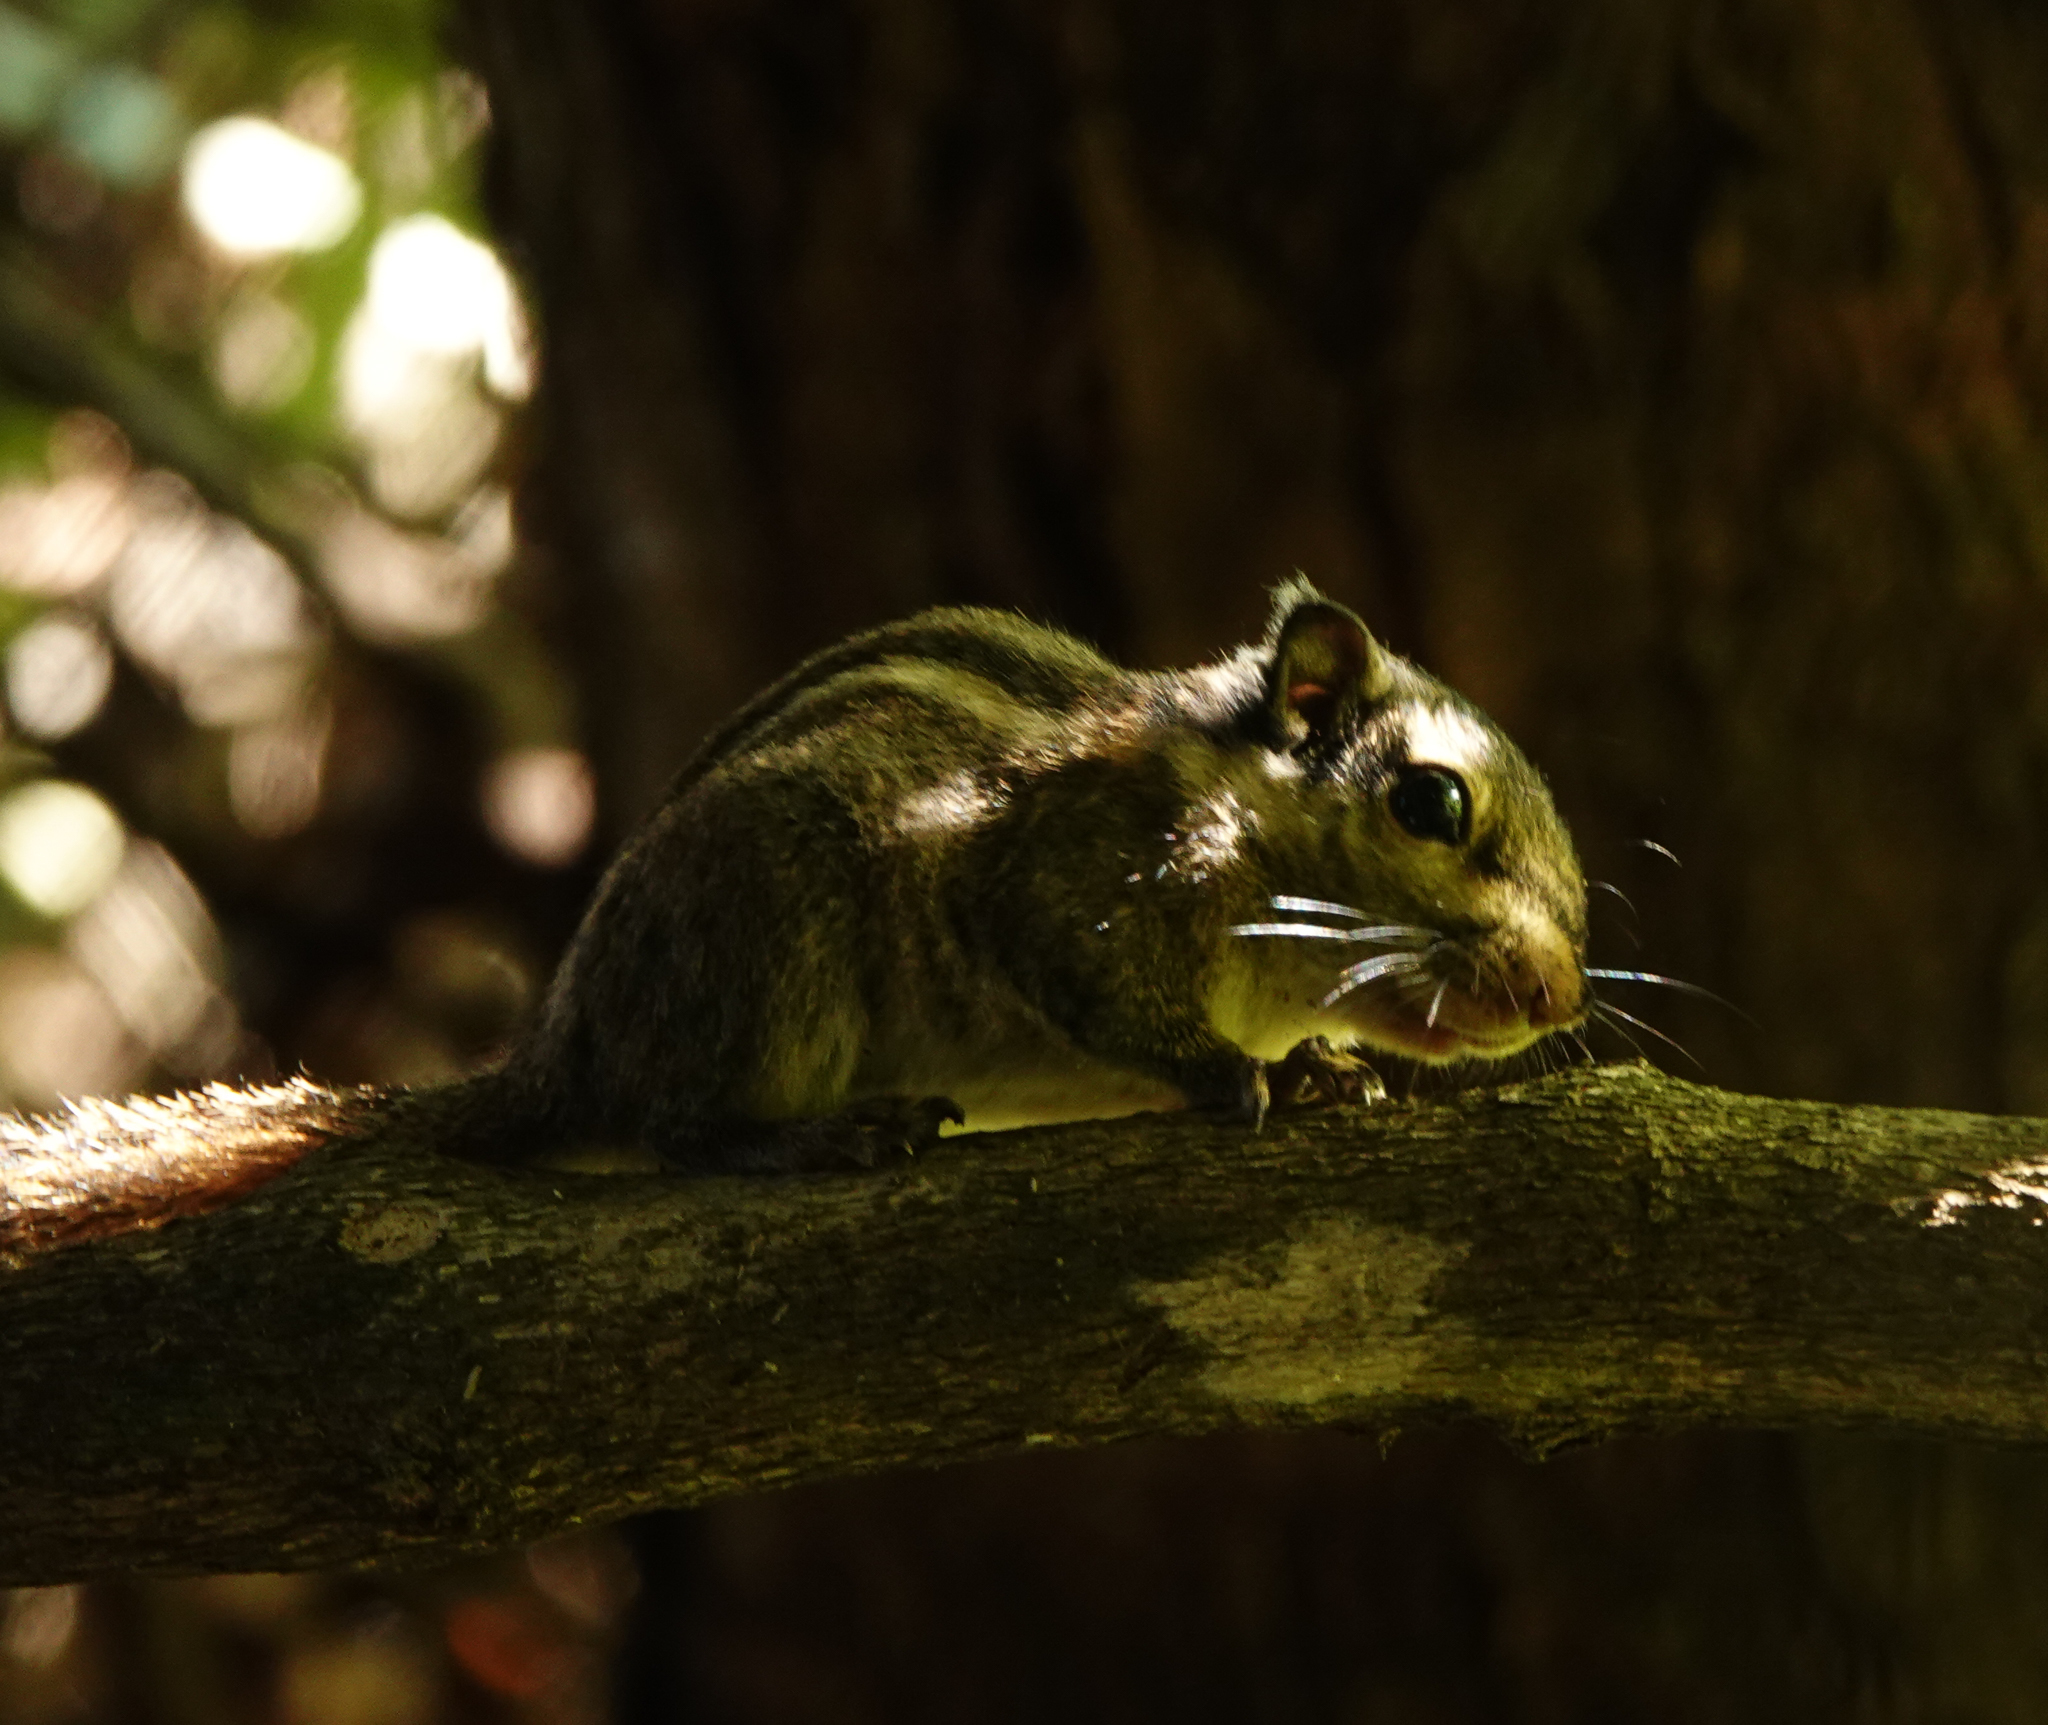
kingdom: Animalia
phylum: Chordata
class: Mammalia
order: Rodentia
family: Sciuridae
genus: Tamiops
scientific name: Tamiops mcclellandii
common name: Himalayan striped squirrel
